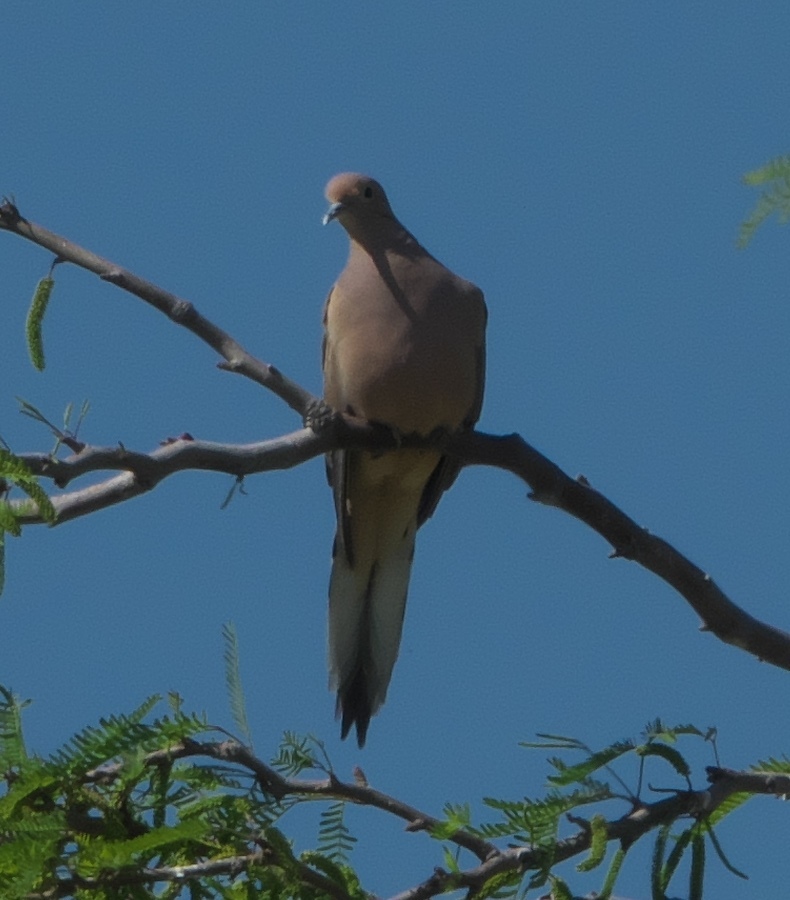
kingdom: Animalia
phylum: Chordata
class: Aves
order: Columbiformes
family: Columbidae
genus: Zenaida
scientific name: Zenaida macroura
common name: Mourning dove
